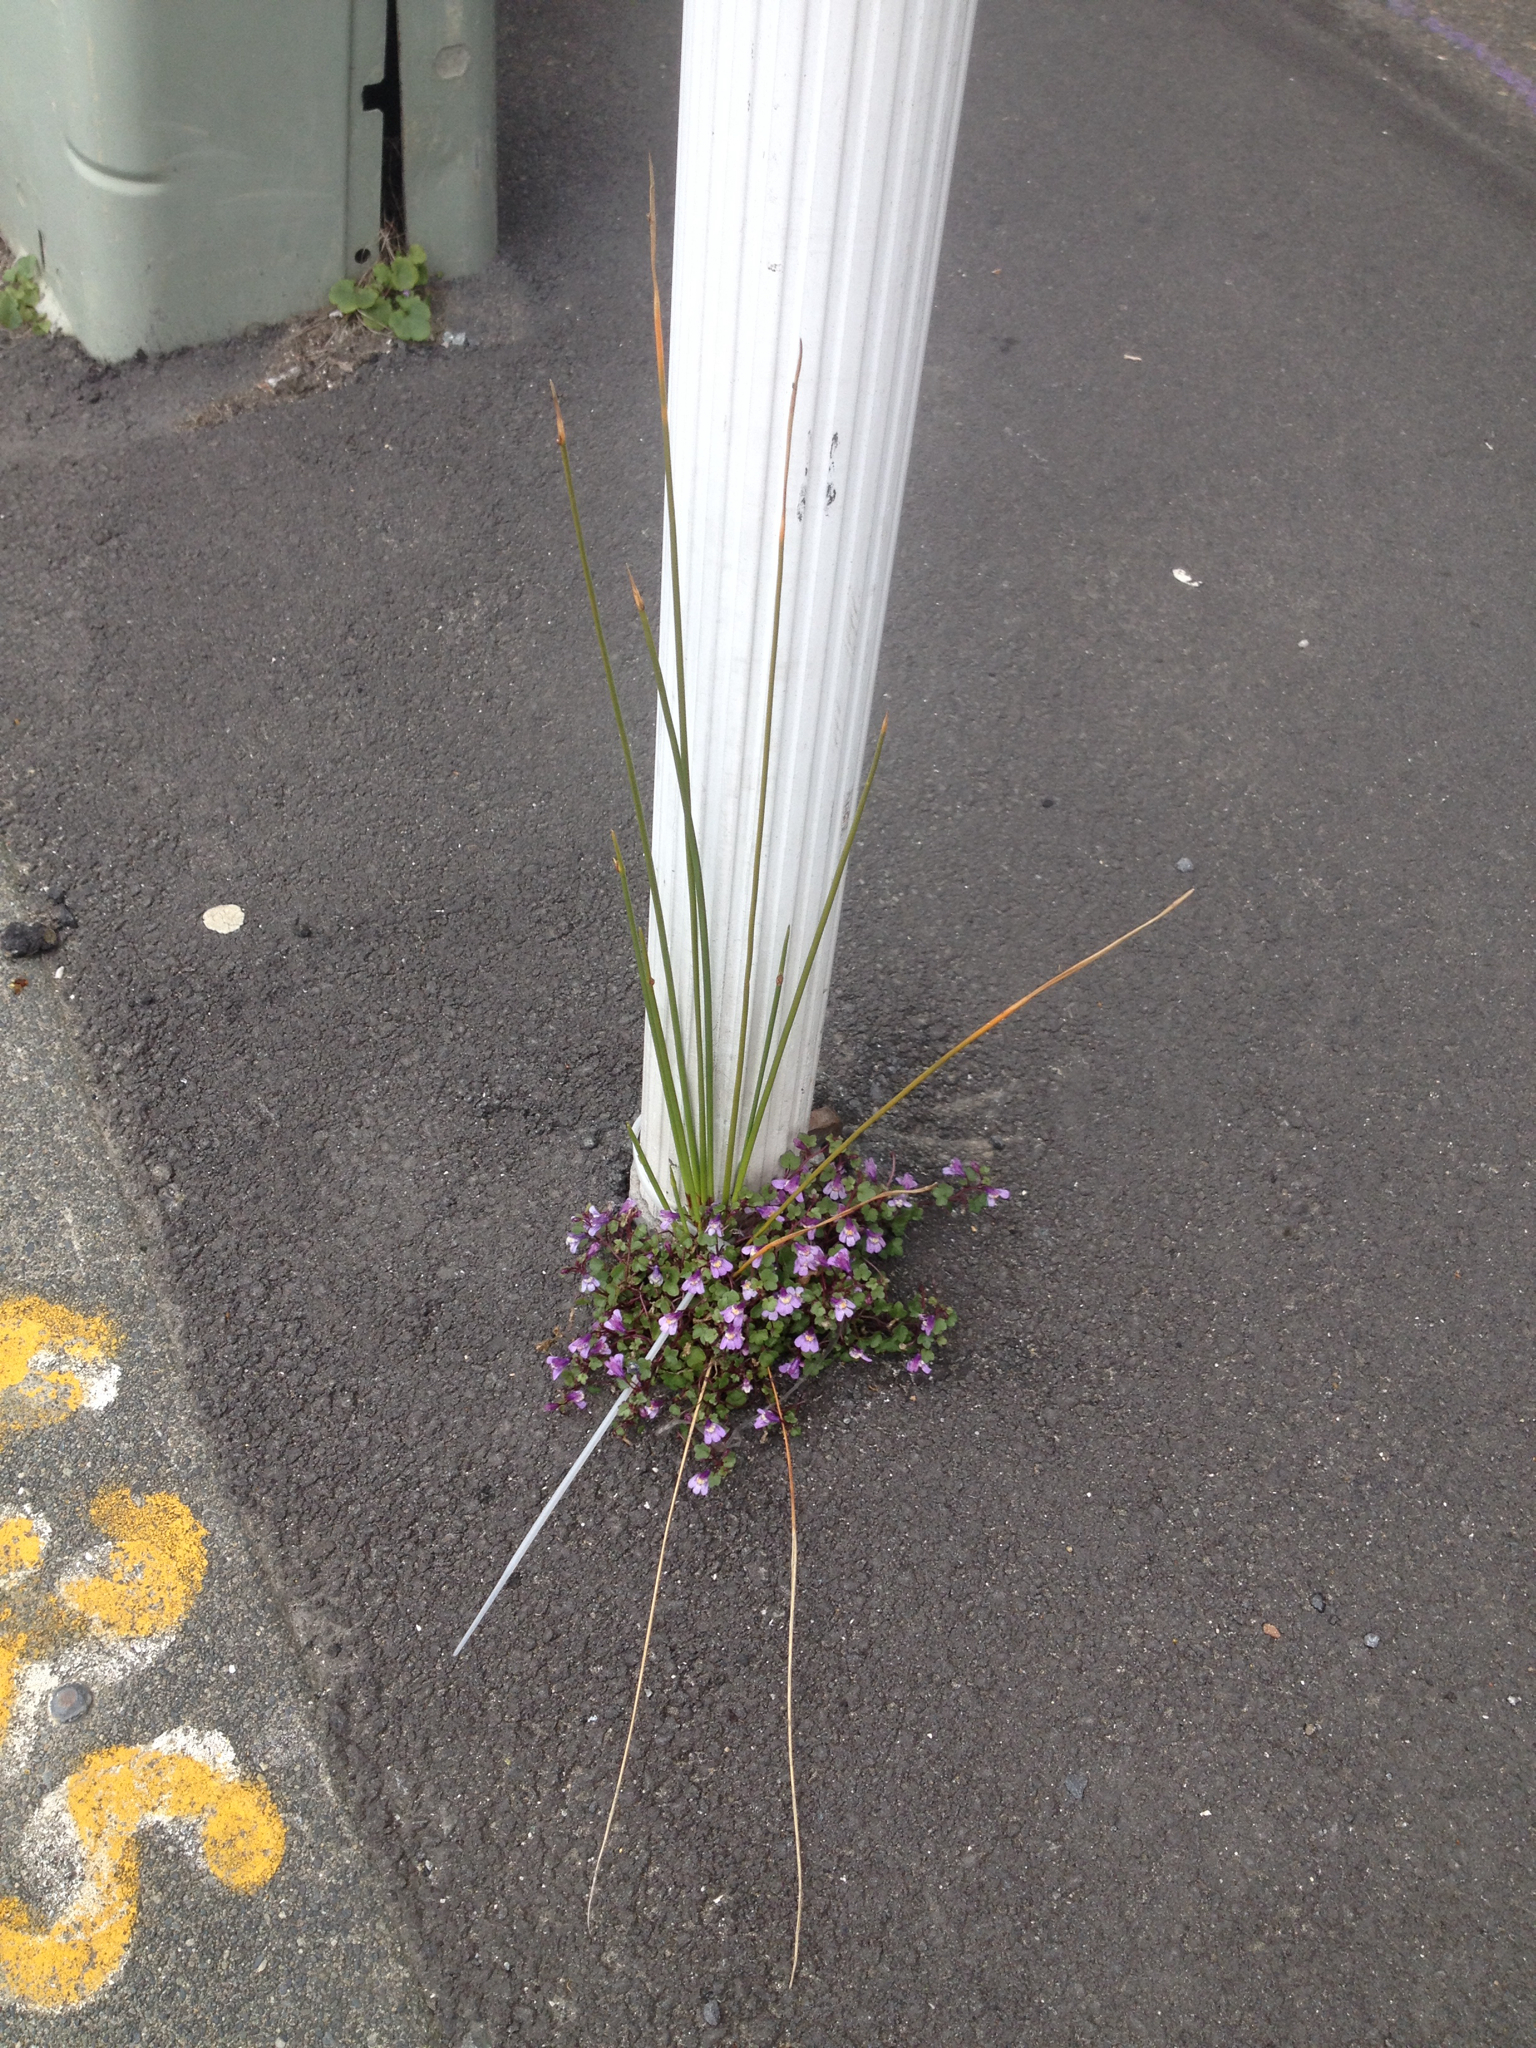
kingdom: Plantae
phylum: Tracheophyta
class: Liliopsida
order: Poales
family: Cyperaceae
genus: Ficinia
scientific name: Ficinia nodosa
